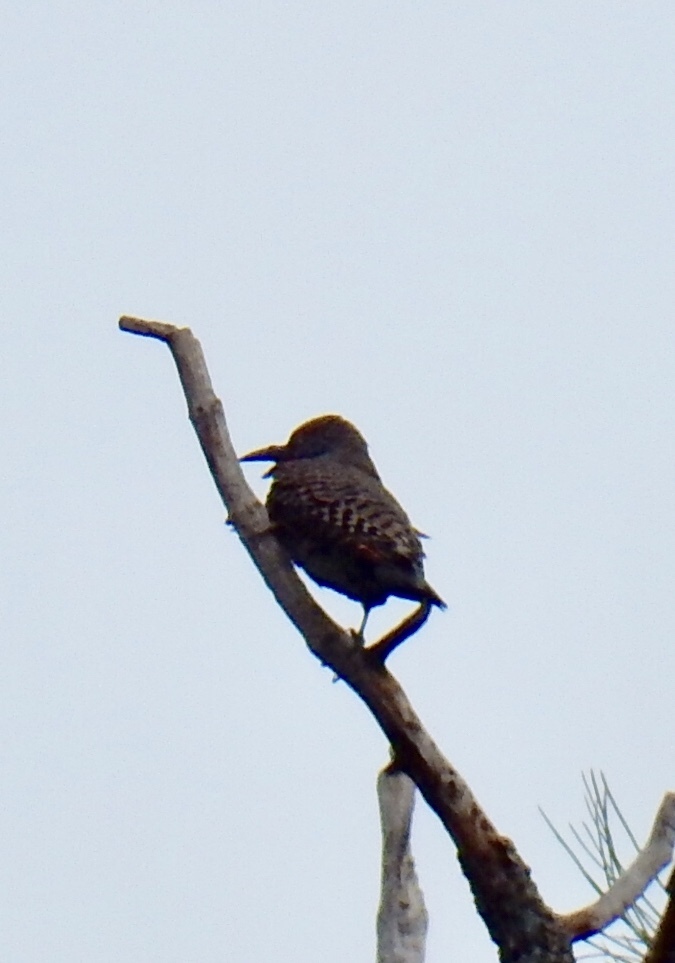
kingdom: Animalia
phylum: Chordata
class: Aves
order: Piciformes
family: Picidae
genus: Colaptes
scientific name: Colaptes auratus
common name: Northern flicker
